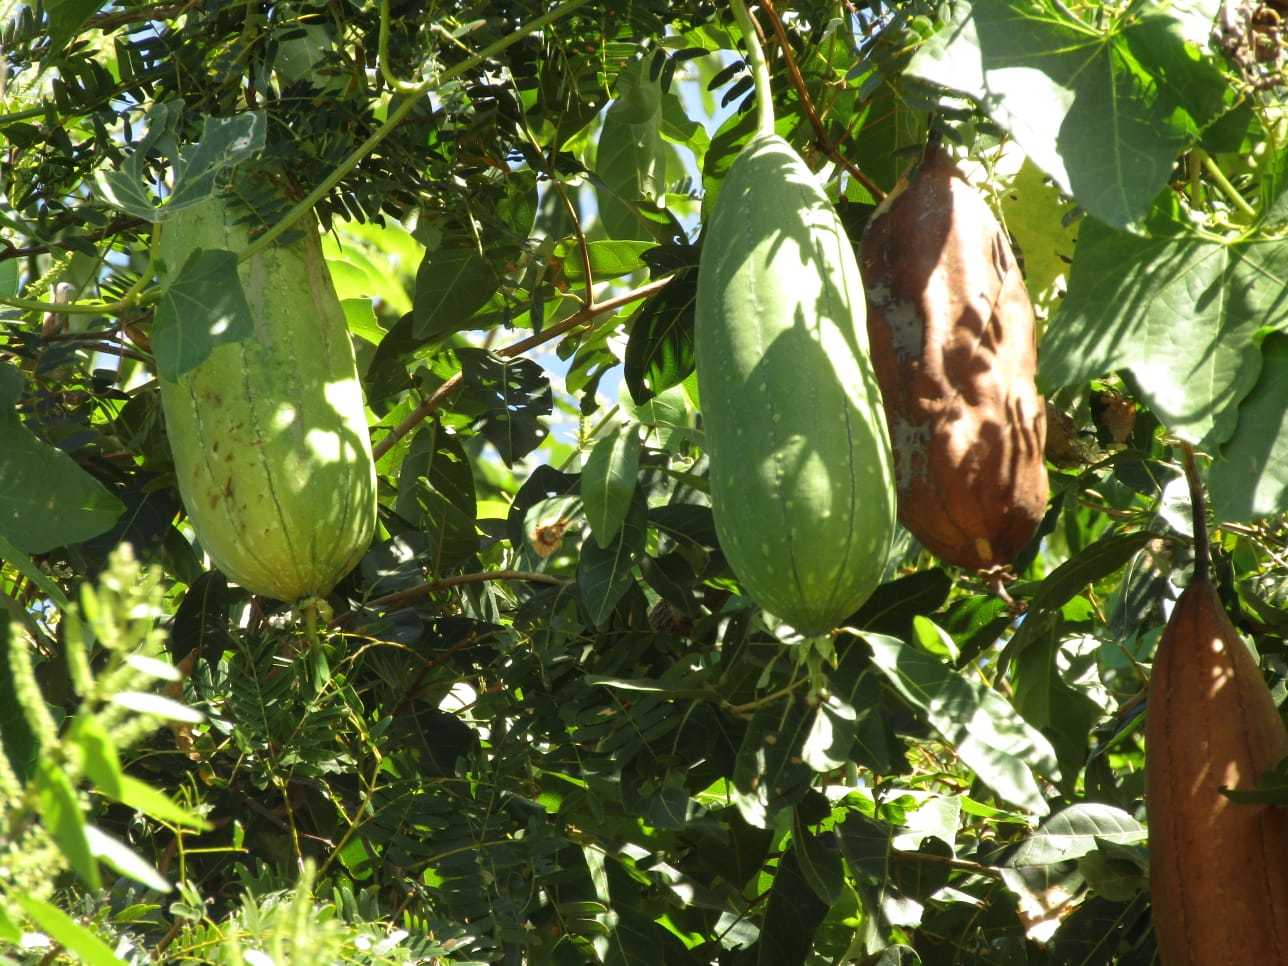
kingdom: Plantae
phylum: Tracheophyta
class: Magnoliopsida
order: Cucurbitales
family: Cucurbitaceae
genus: Luffa
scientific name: Luffa aegyptiaca
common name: Sponge gourd
